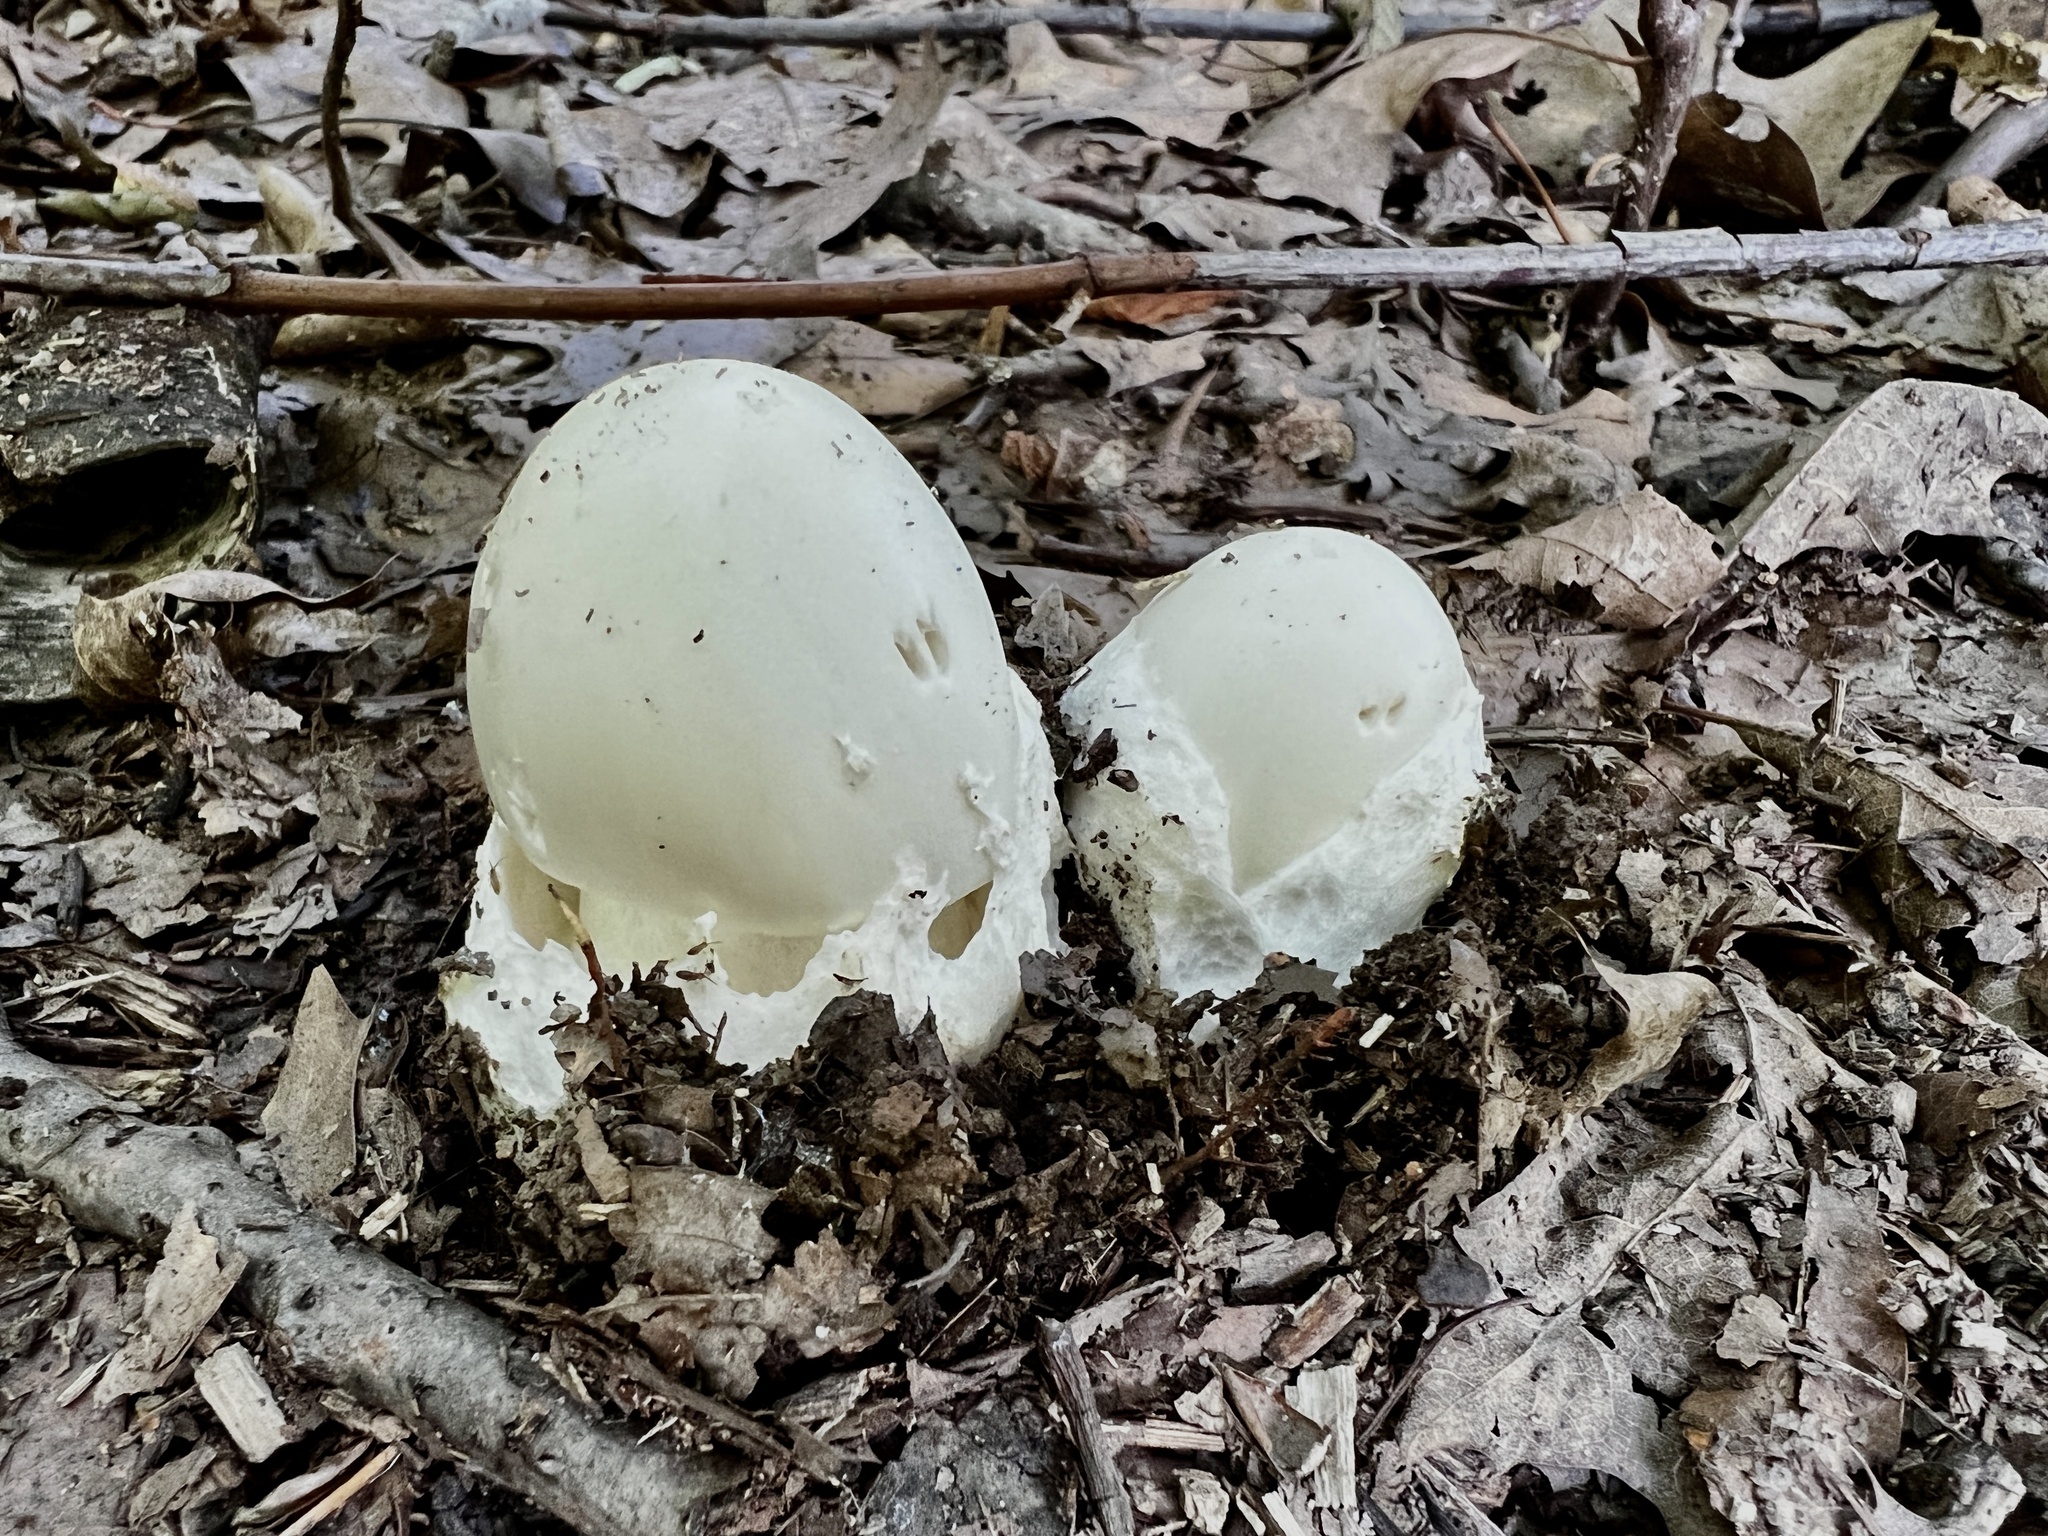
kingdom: Fungi
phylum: Basidiomycota
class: Agaricomycetes
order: Agaricales
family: Amanitaceae
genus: Amanita
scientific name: Amanita bisporigera
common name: Eastern north american destroying angel
